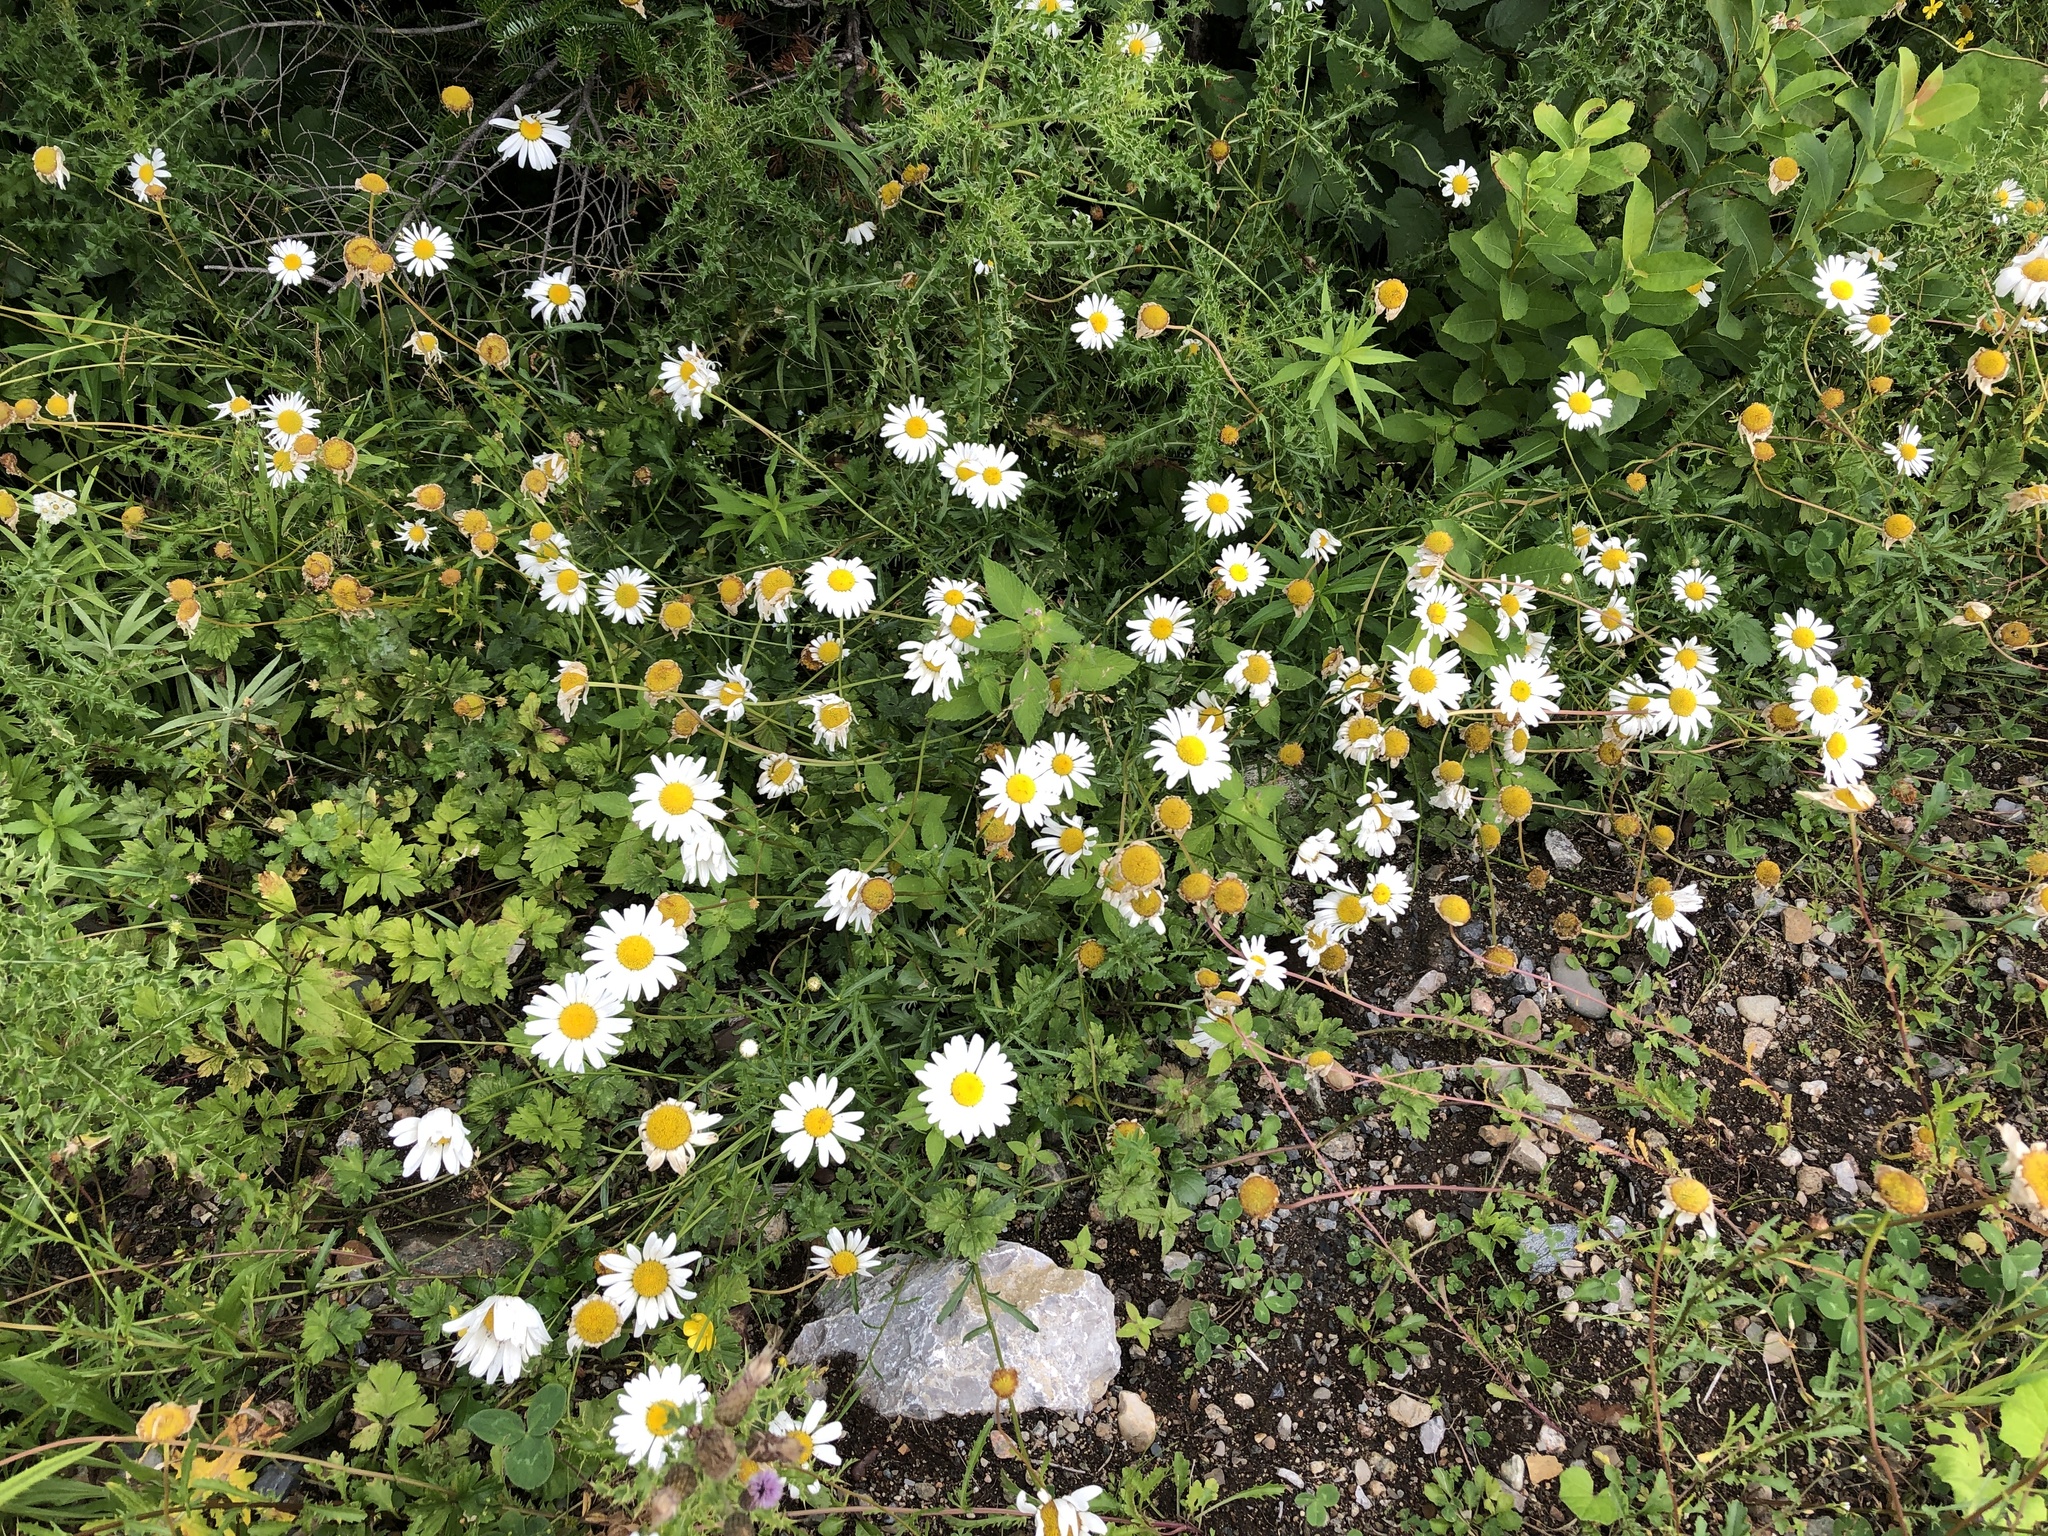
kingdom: Plantae
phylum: Tracheophyta
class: Magnoliopsida
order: Asterales
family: Asteraceae
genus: Leucanthemum
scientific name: Leucanthemum vulgare
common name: Oxeye daisy
